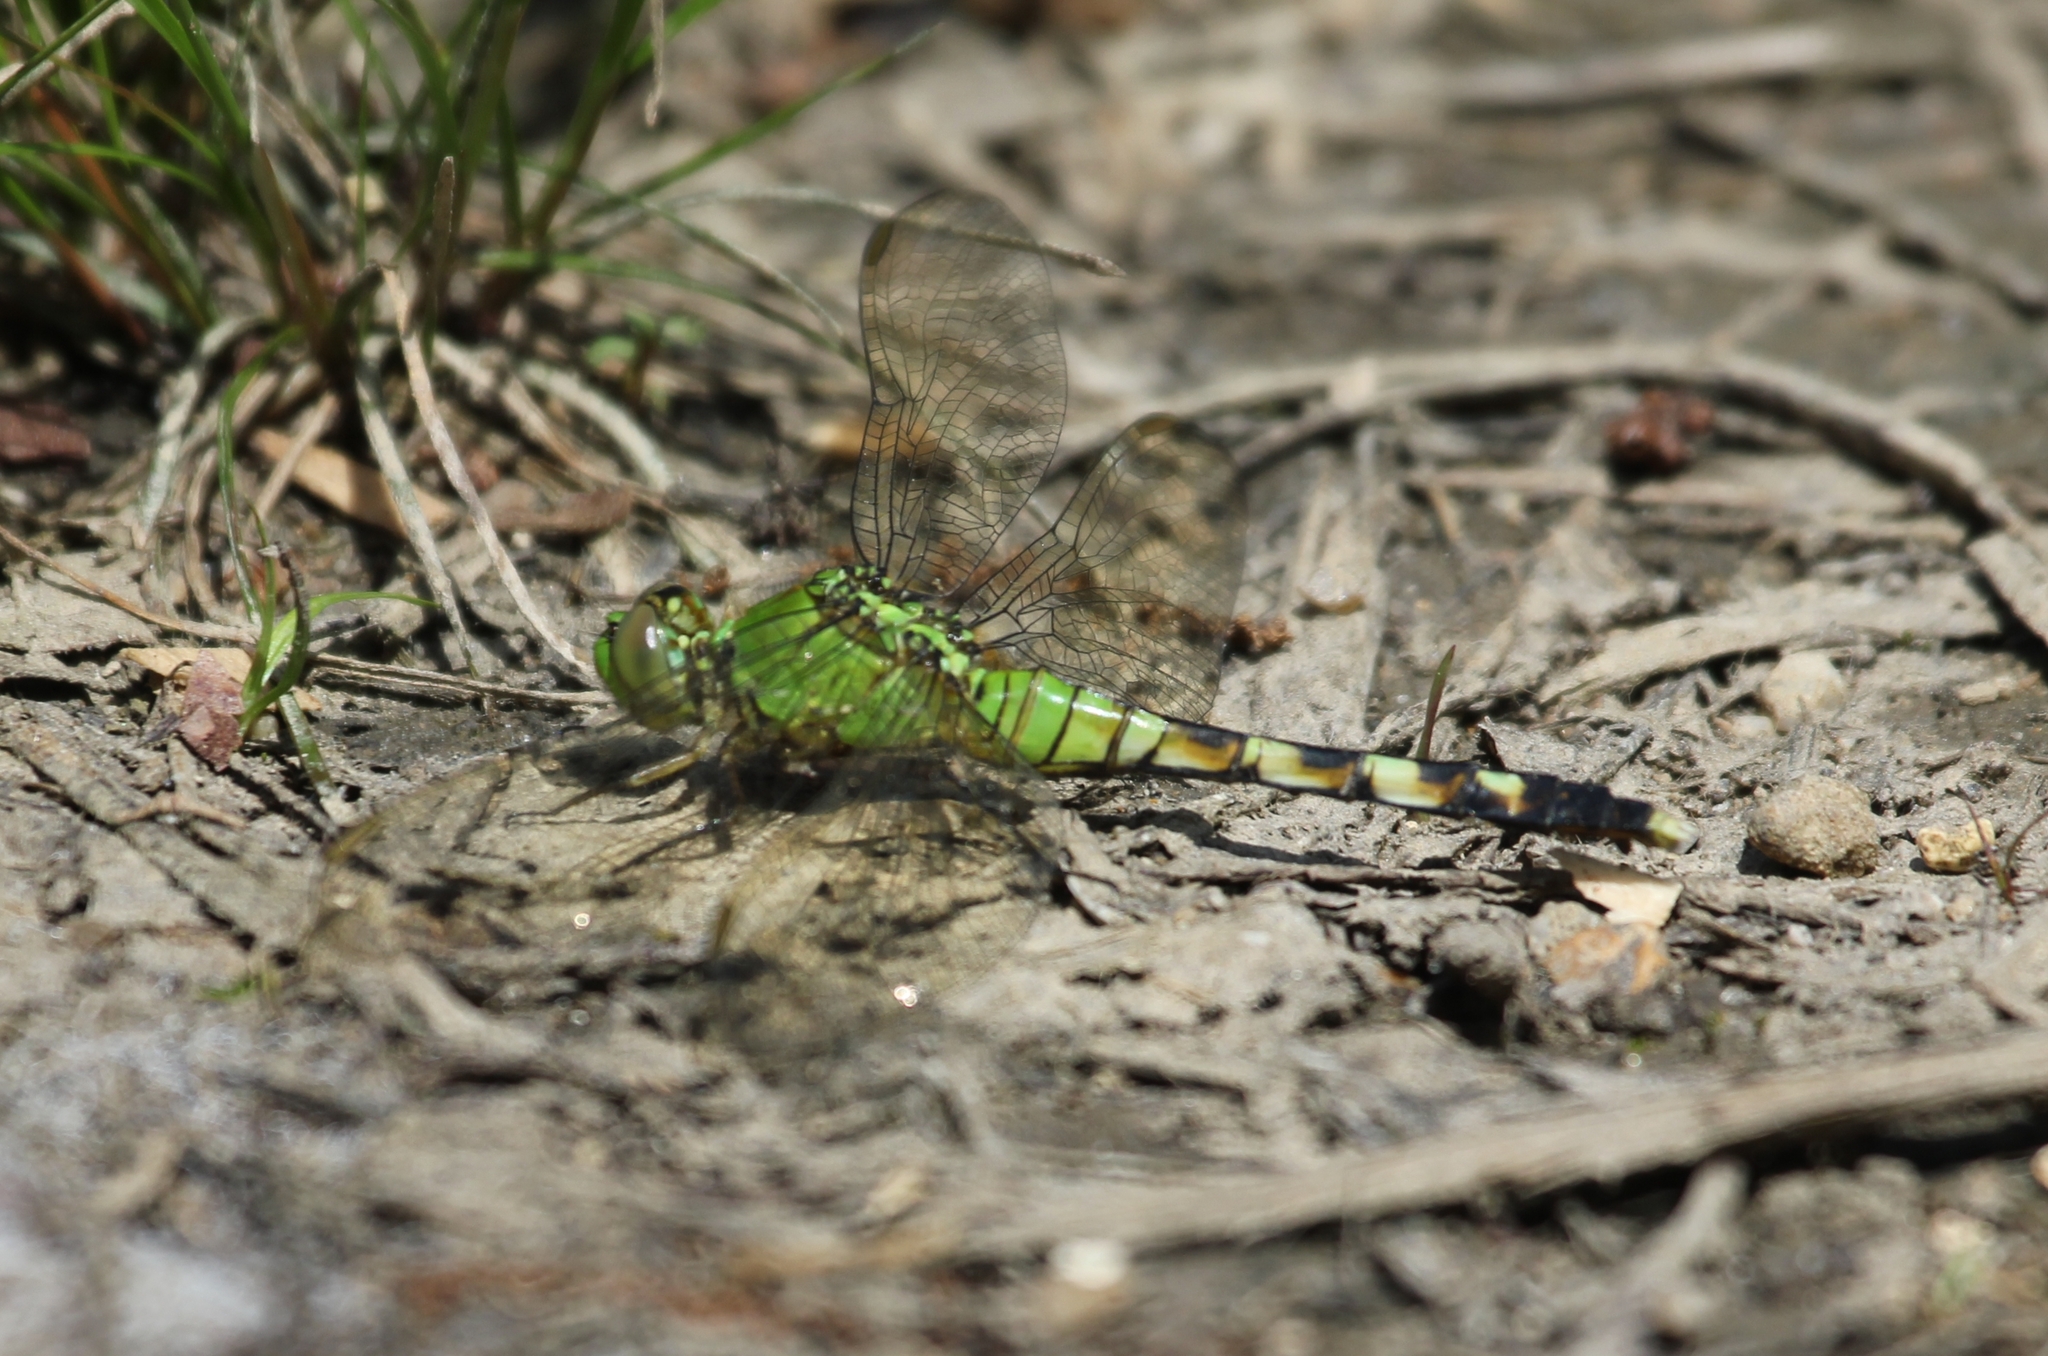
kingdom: Animalia
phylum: Arthropoda
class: Insecta
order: Odonata
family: Libellulidae
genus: Erythemis
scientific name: Erythemis simplicicollis
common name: Eastern pondhawk
